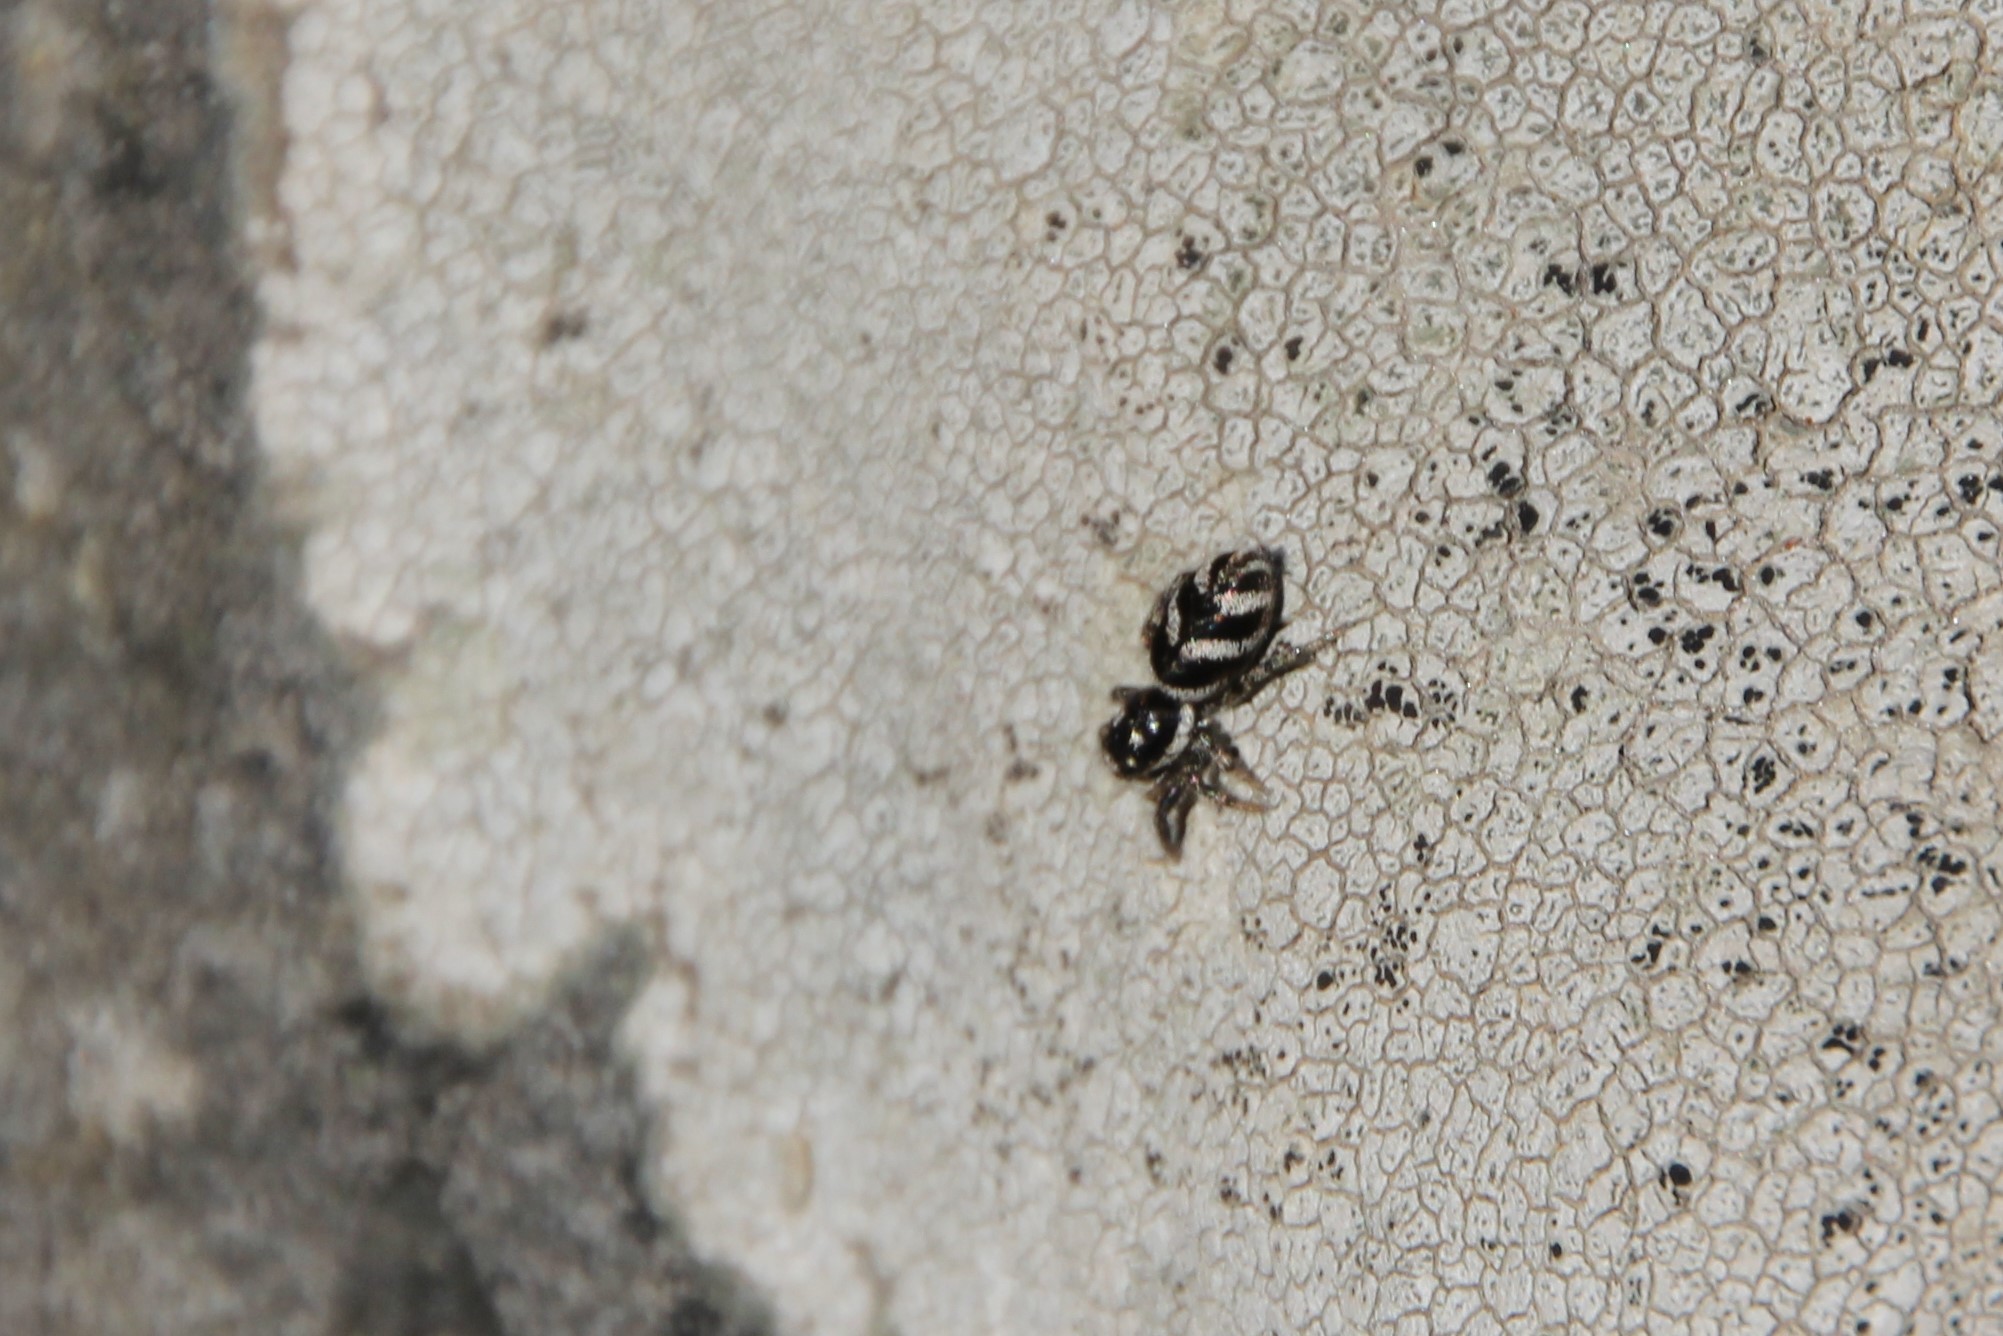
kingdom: Animalia
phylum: Arthropoda
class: Arachnida
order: Araneae
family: Salticidae
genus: Salticus
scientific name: Salticus scenicus
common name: Zebra jumper
